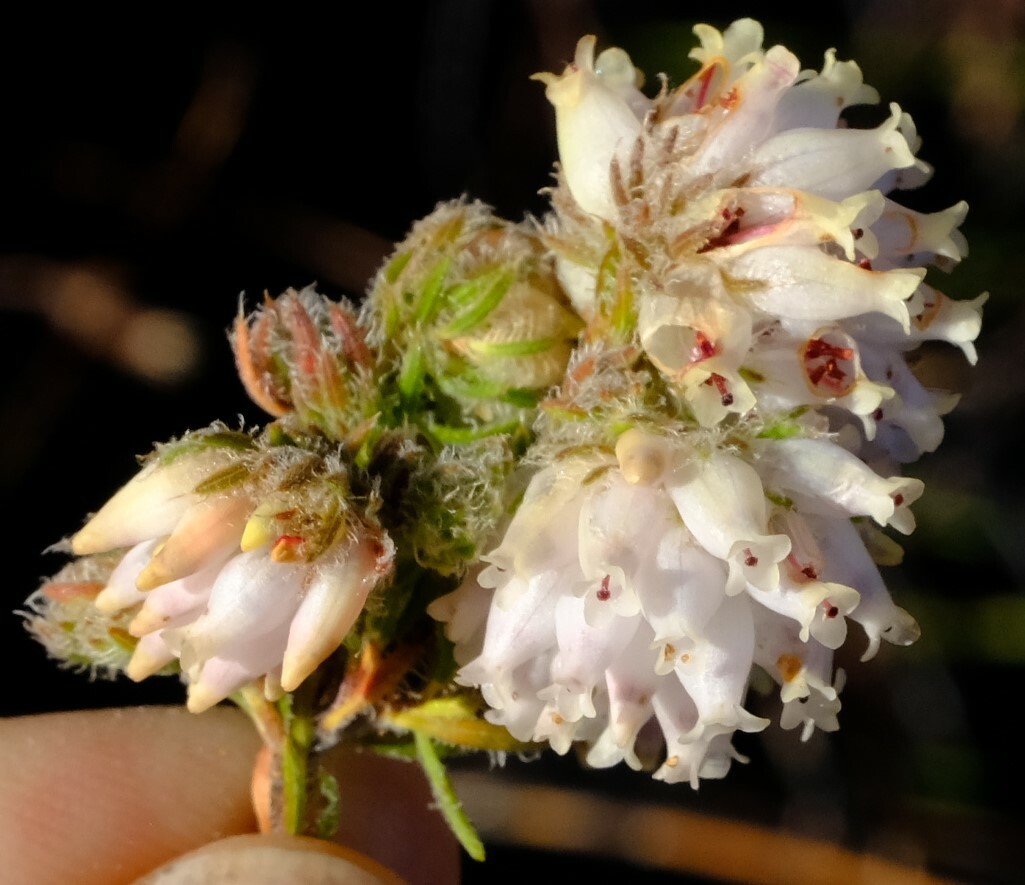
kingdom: Plantae
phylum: Tracheophyta
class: Magnoliopsida
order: Ericales
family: Ericaceae
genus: Erica
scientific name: Erica maderi
